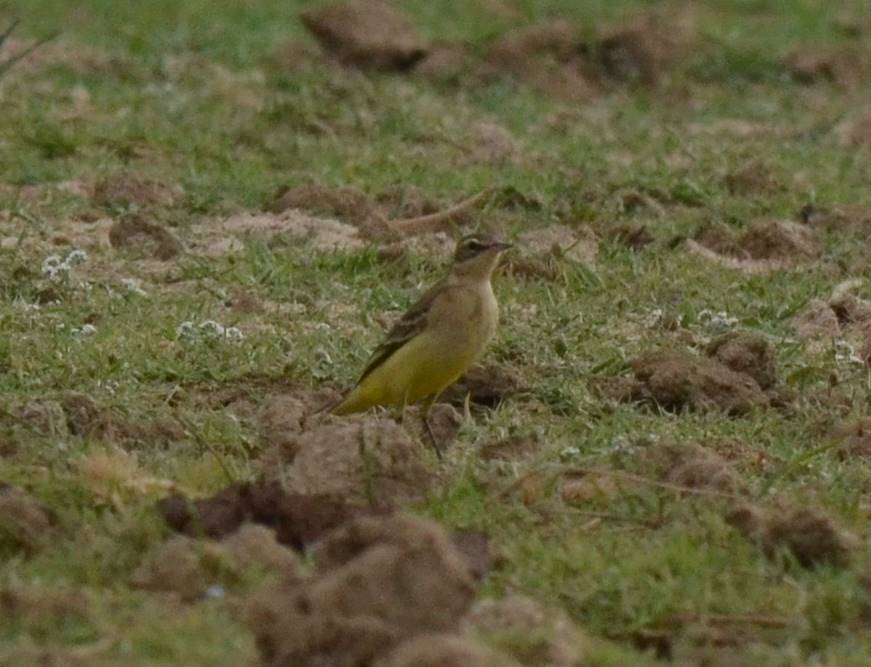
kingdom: Animalia
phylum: Chordata
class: Aves
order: Passeriformes
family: Motacillidae
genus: Motacilla
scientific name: Motacilla flava
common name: Western yellow wagtail
